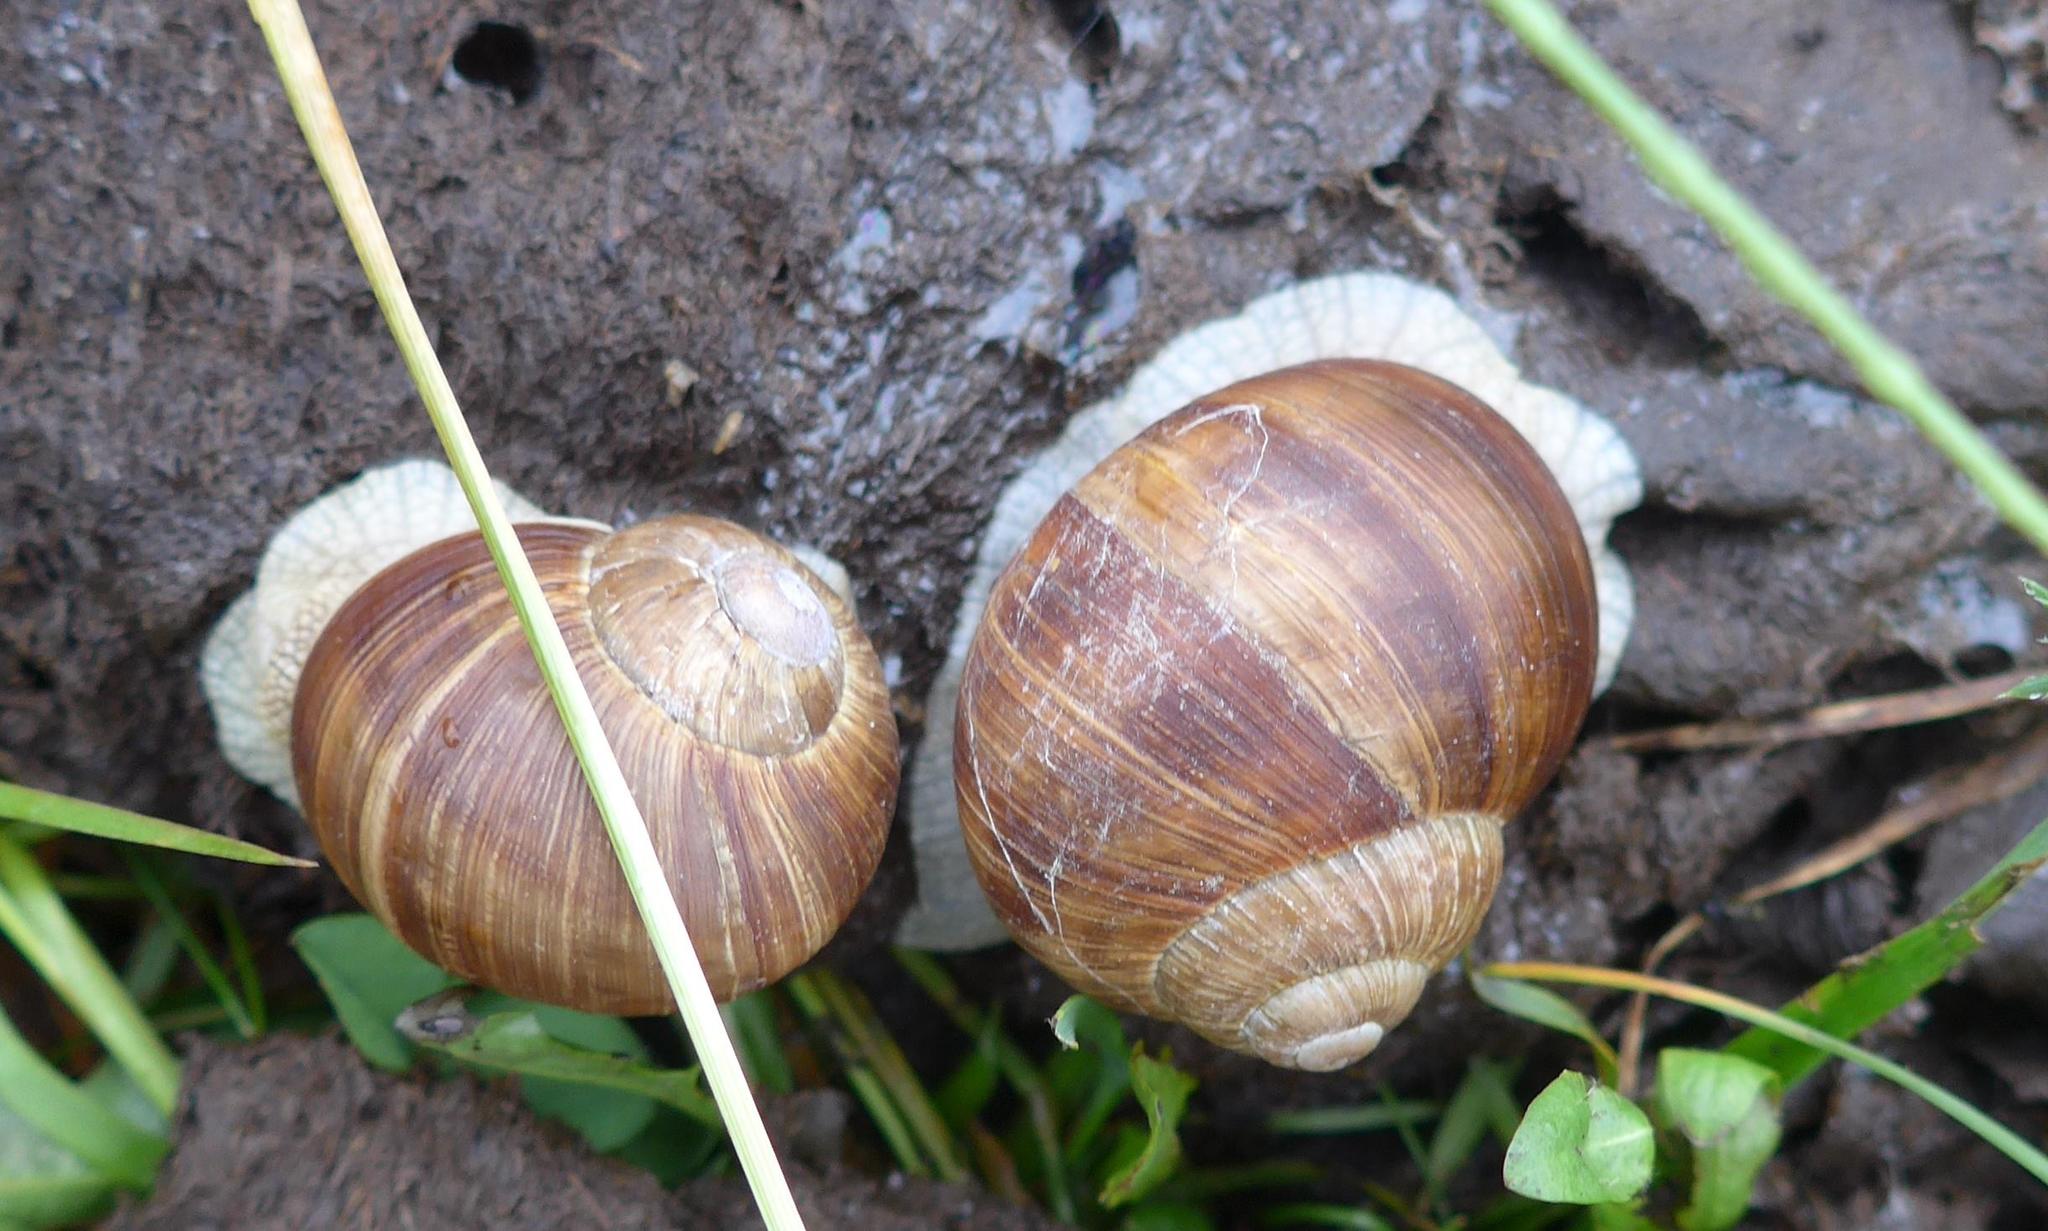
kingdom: Animalia
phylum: Mollusca
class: Gastropoda
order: Stylommatophora
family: Helicidae
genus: Helix
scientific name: Helix pomatia
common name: Roman snail
